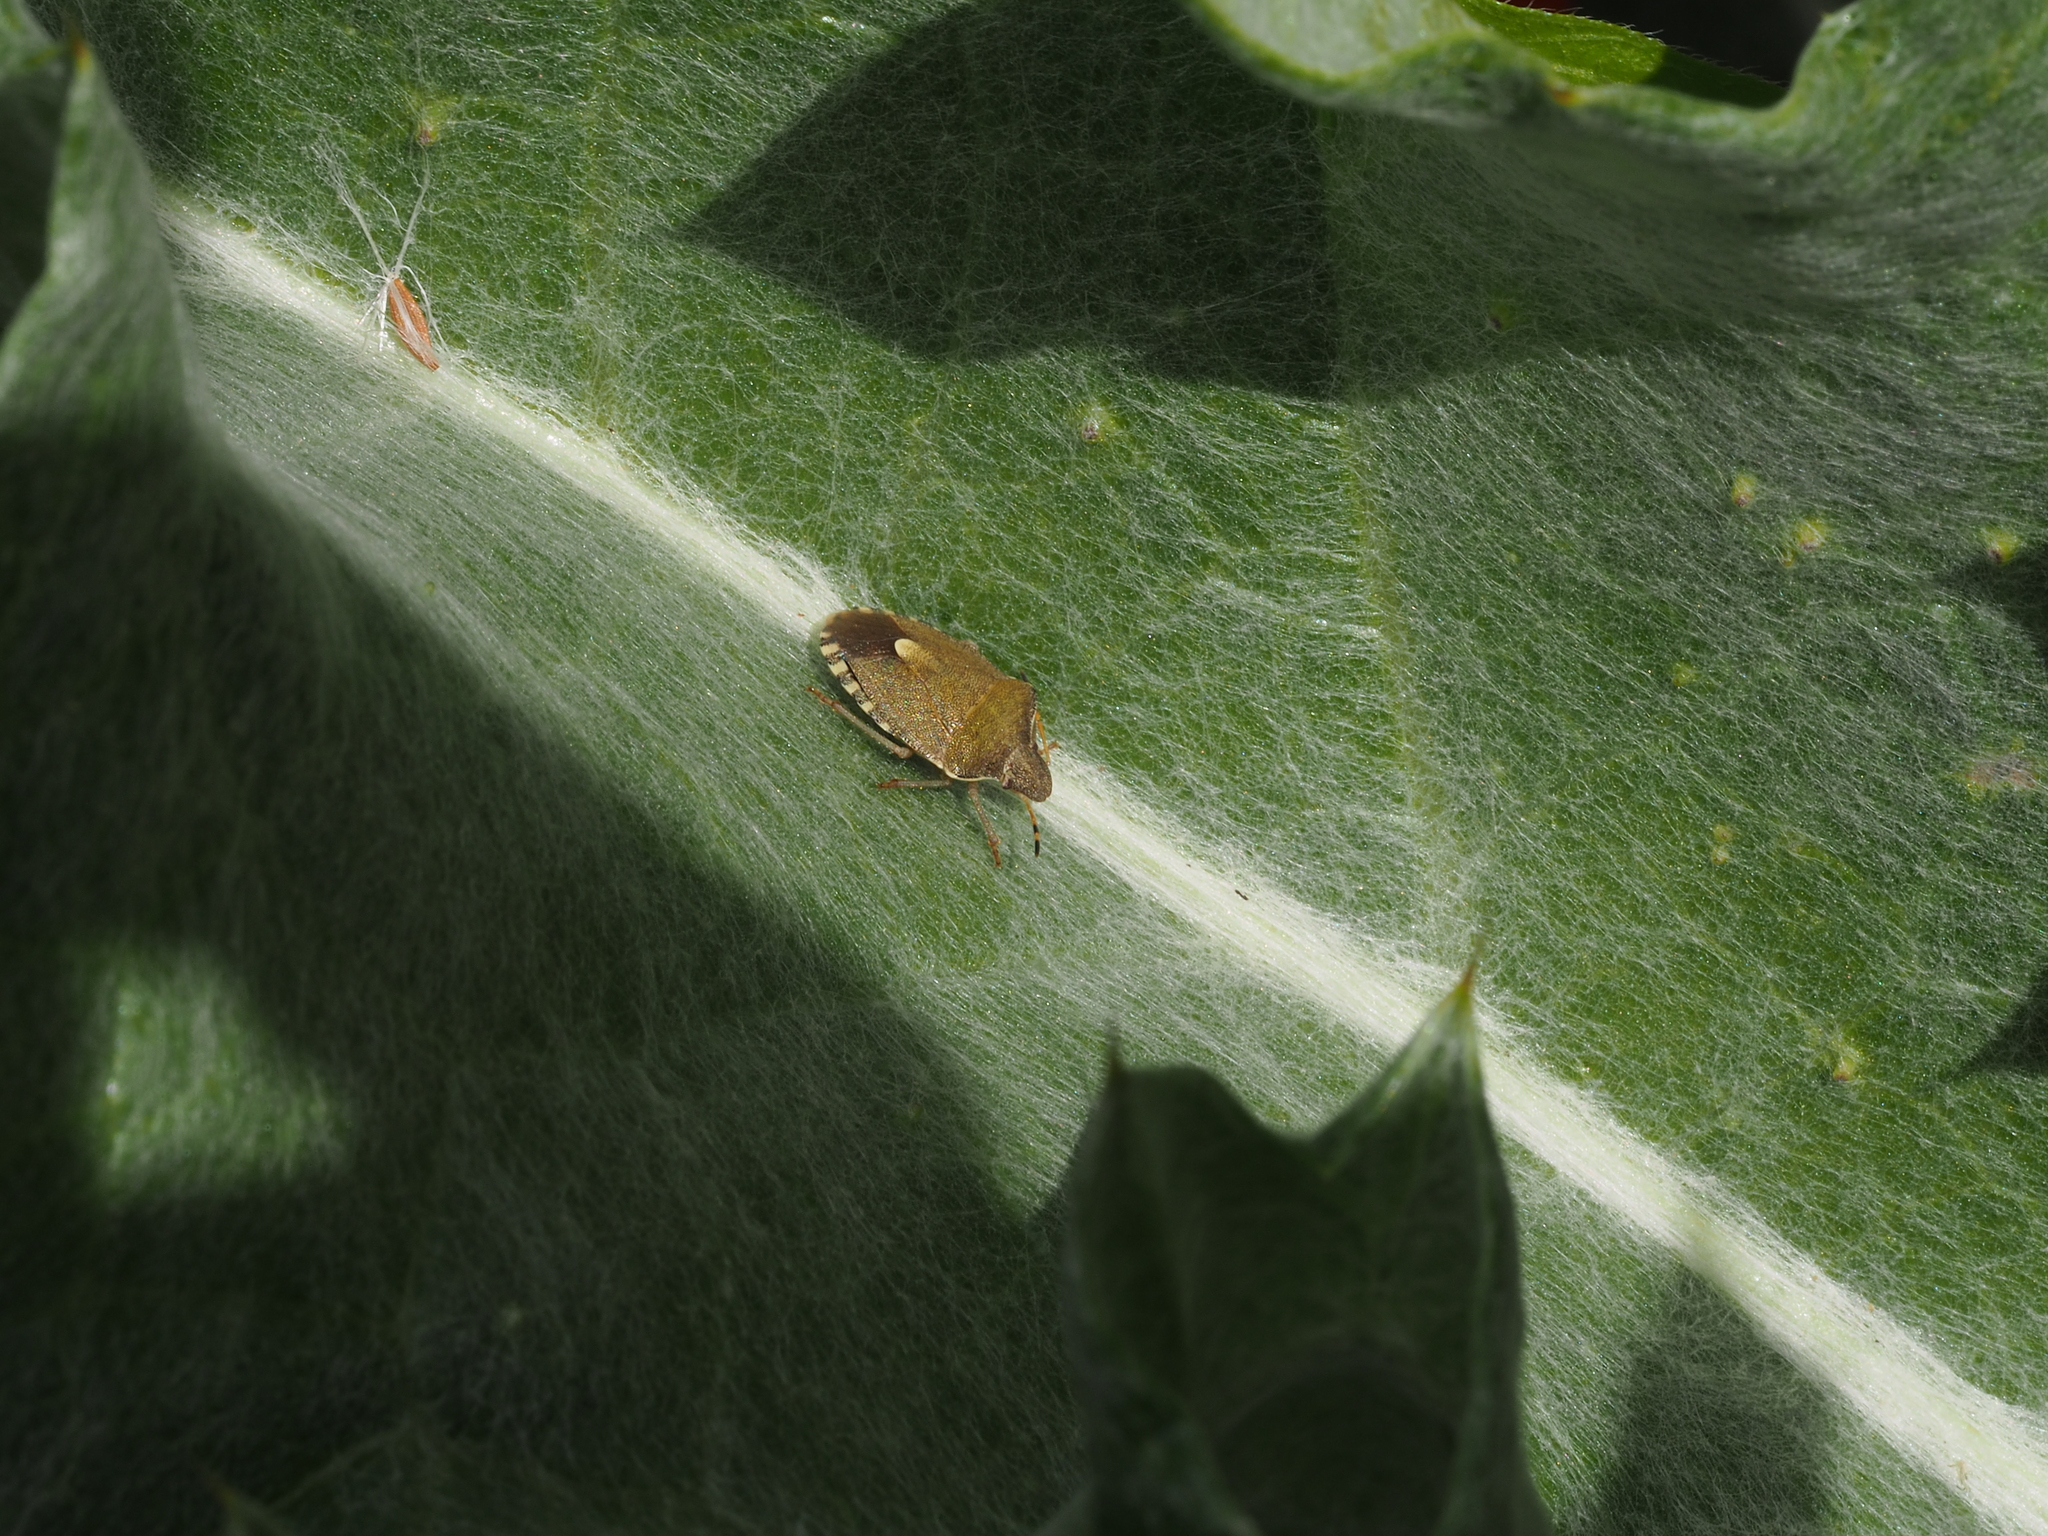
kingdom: Animalia
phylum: Arthropoda
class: Insecta
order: Hemiptera
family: Pentatomidae
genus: Holcostethus
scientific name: Holcostethus strictus
